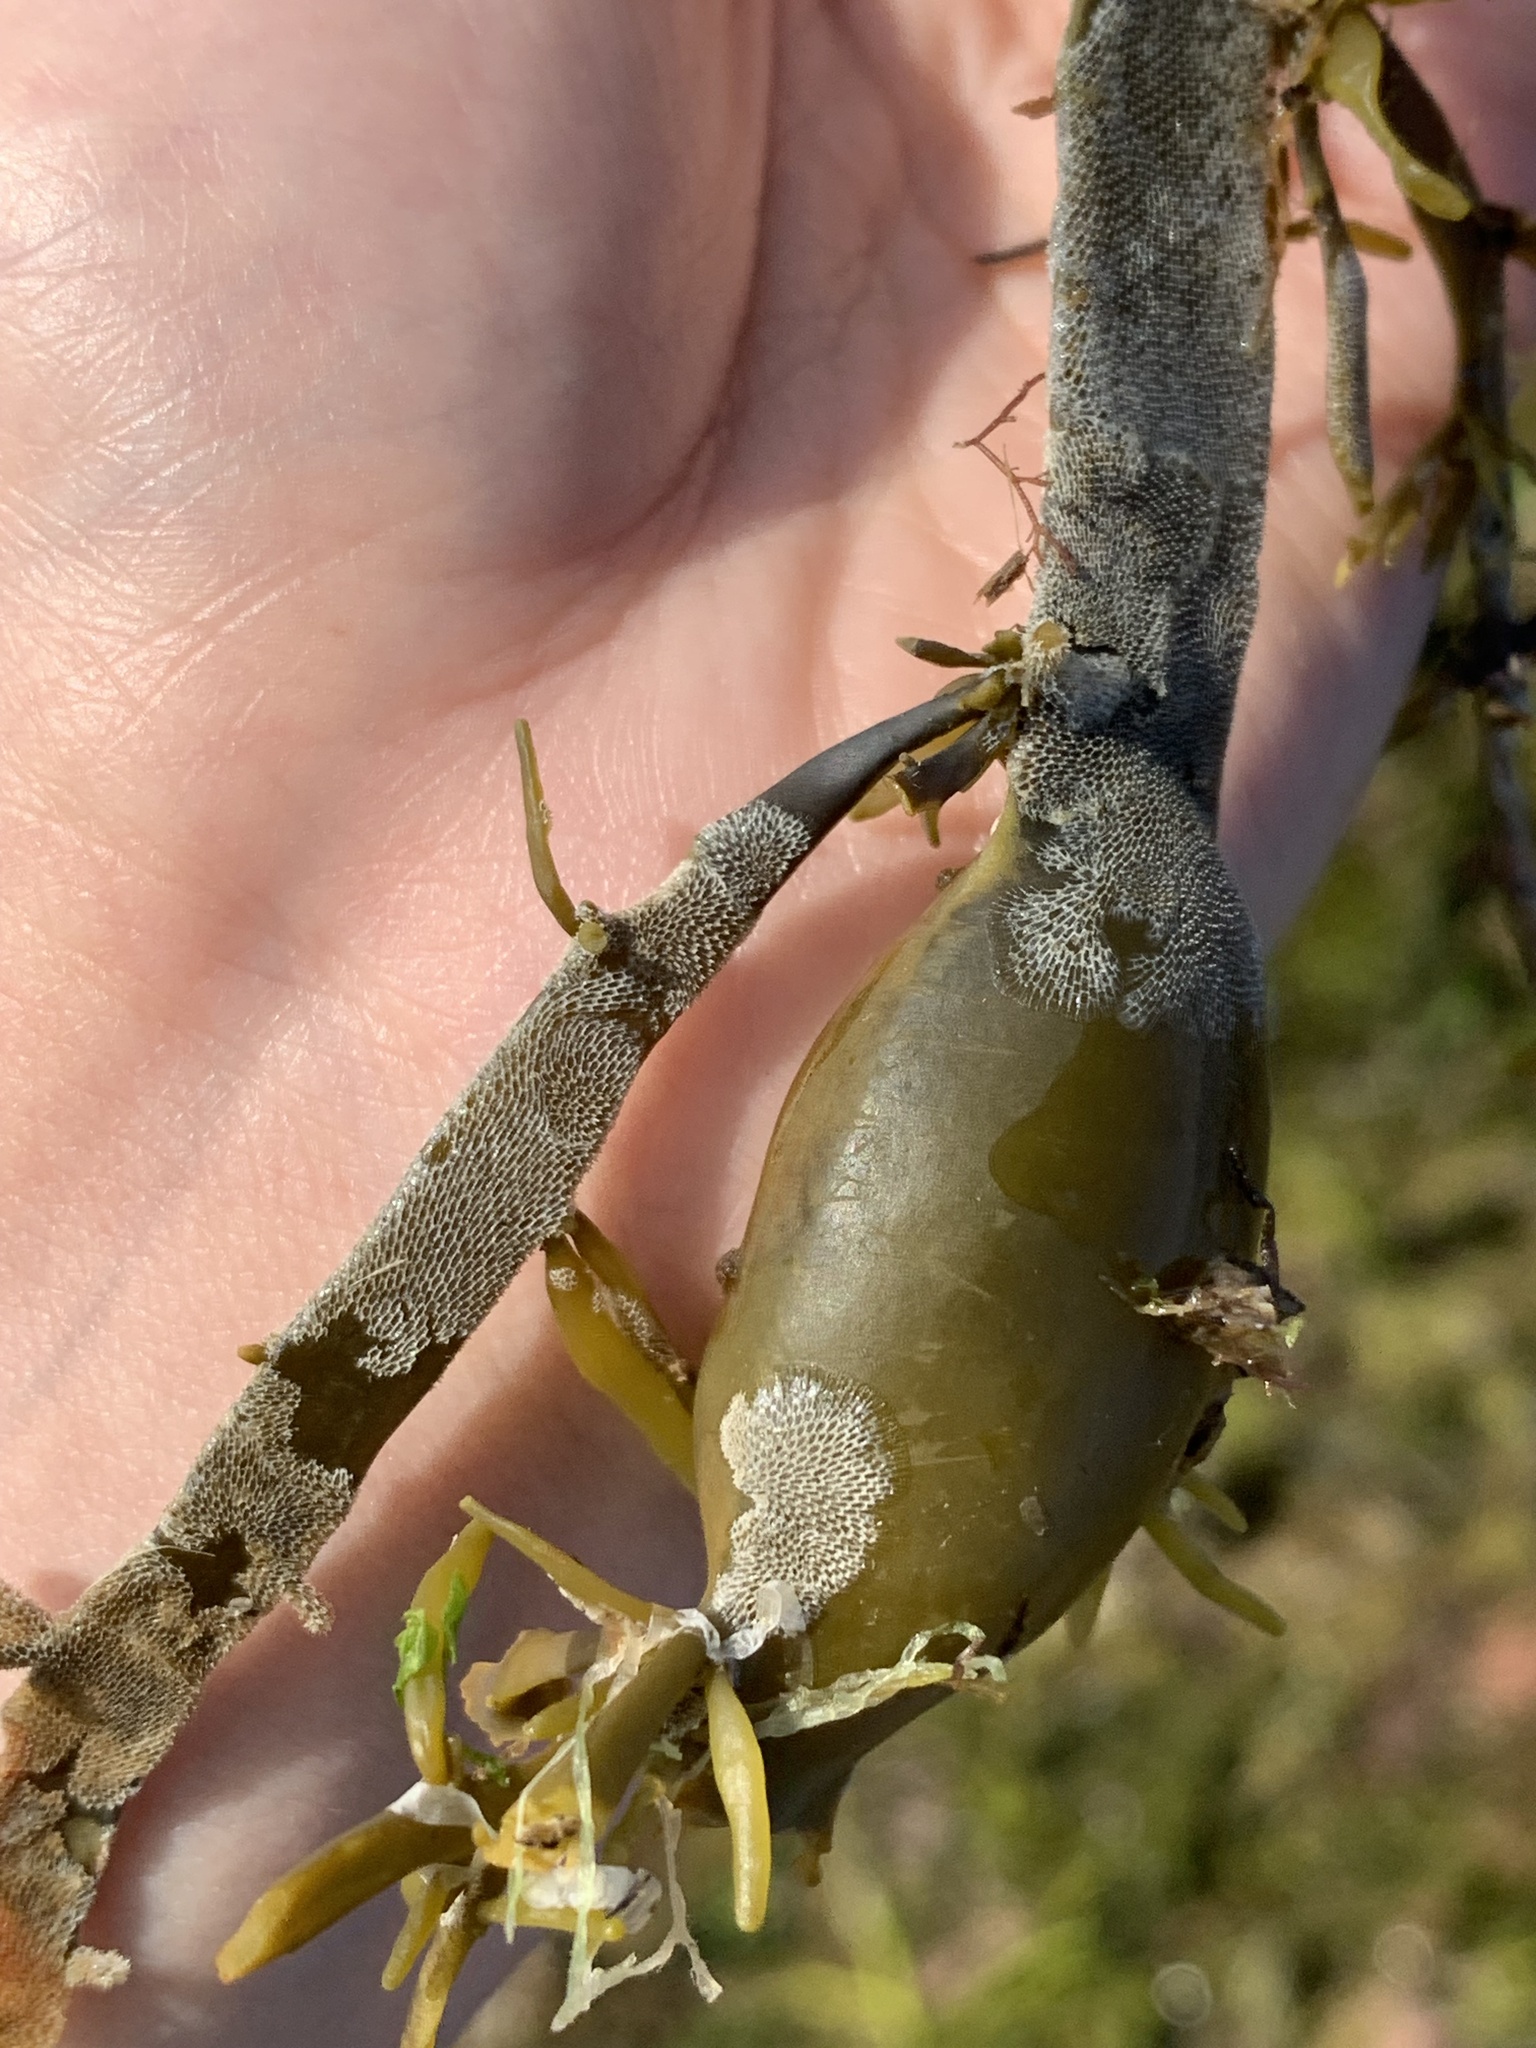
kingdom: Animalia
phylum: Bryozoa
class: Gymnolaemata
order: Cheilostomatida
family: Membraniporidae
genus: Membranipora
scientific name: Membranipora membranacea
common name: Sea mat
